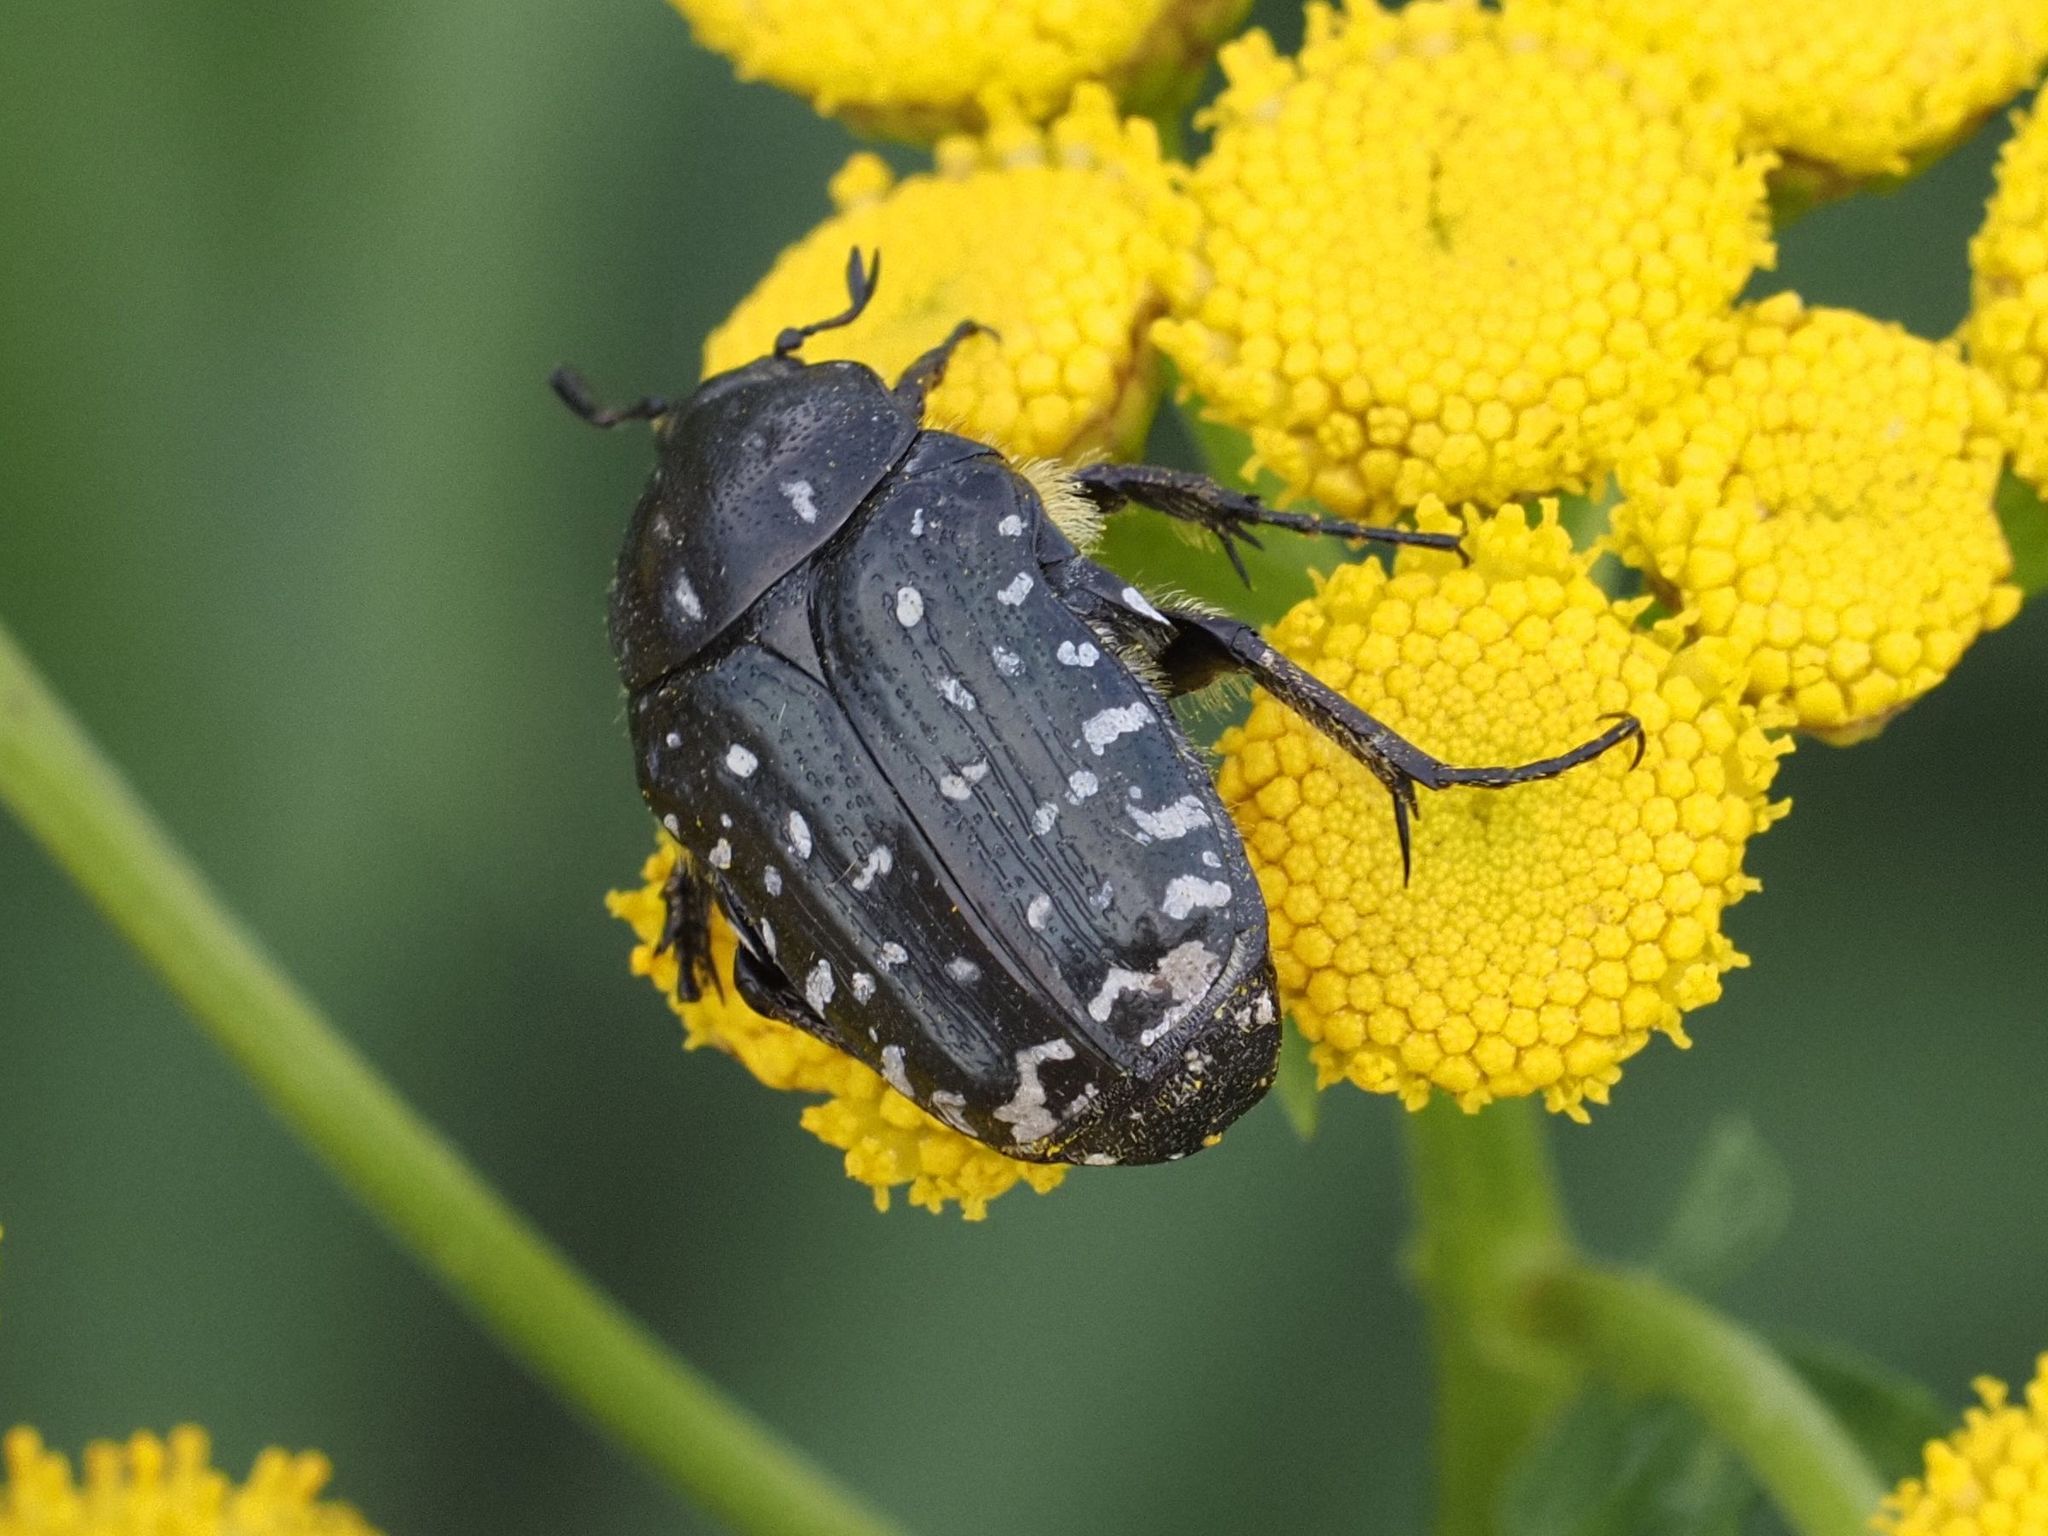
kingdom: Animalia
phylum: Arthropoda
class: Insecta
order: Coleoptera
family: Scarabaeidae
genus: Oxythyrea
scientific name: Oxythyrea funesta
